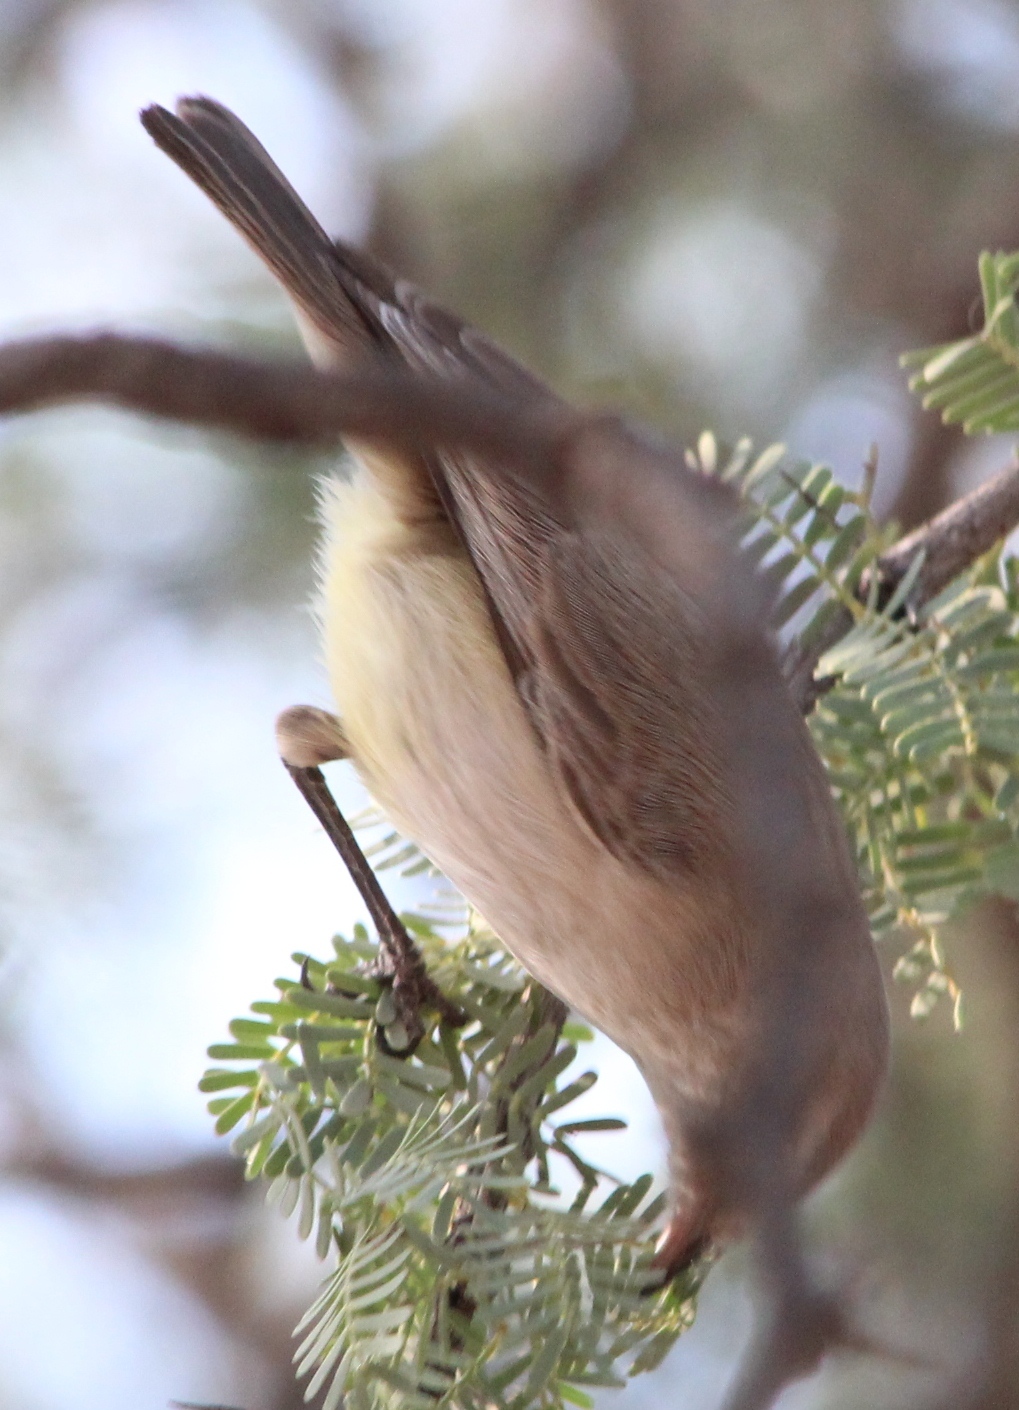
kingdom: Animalia
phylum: Chordata
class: Aves
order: Passeriformes
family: Cisticolidae
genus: Eremomela
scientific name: Eremomela icteropygialis
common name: Yellow-bellied eremomela
